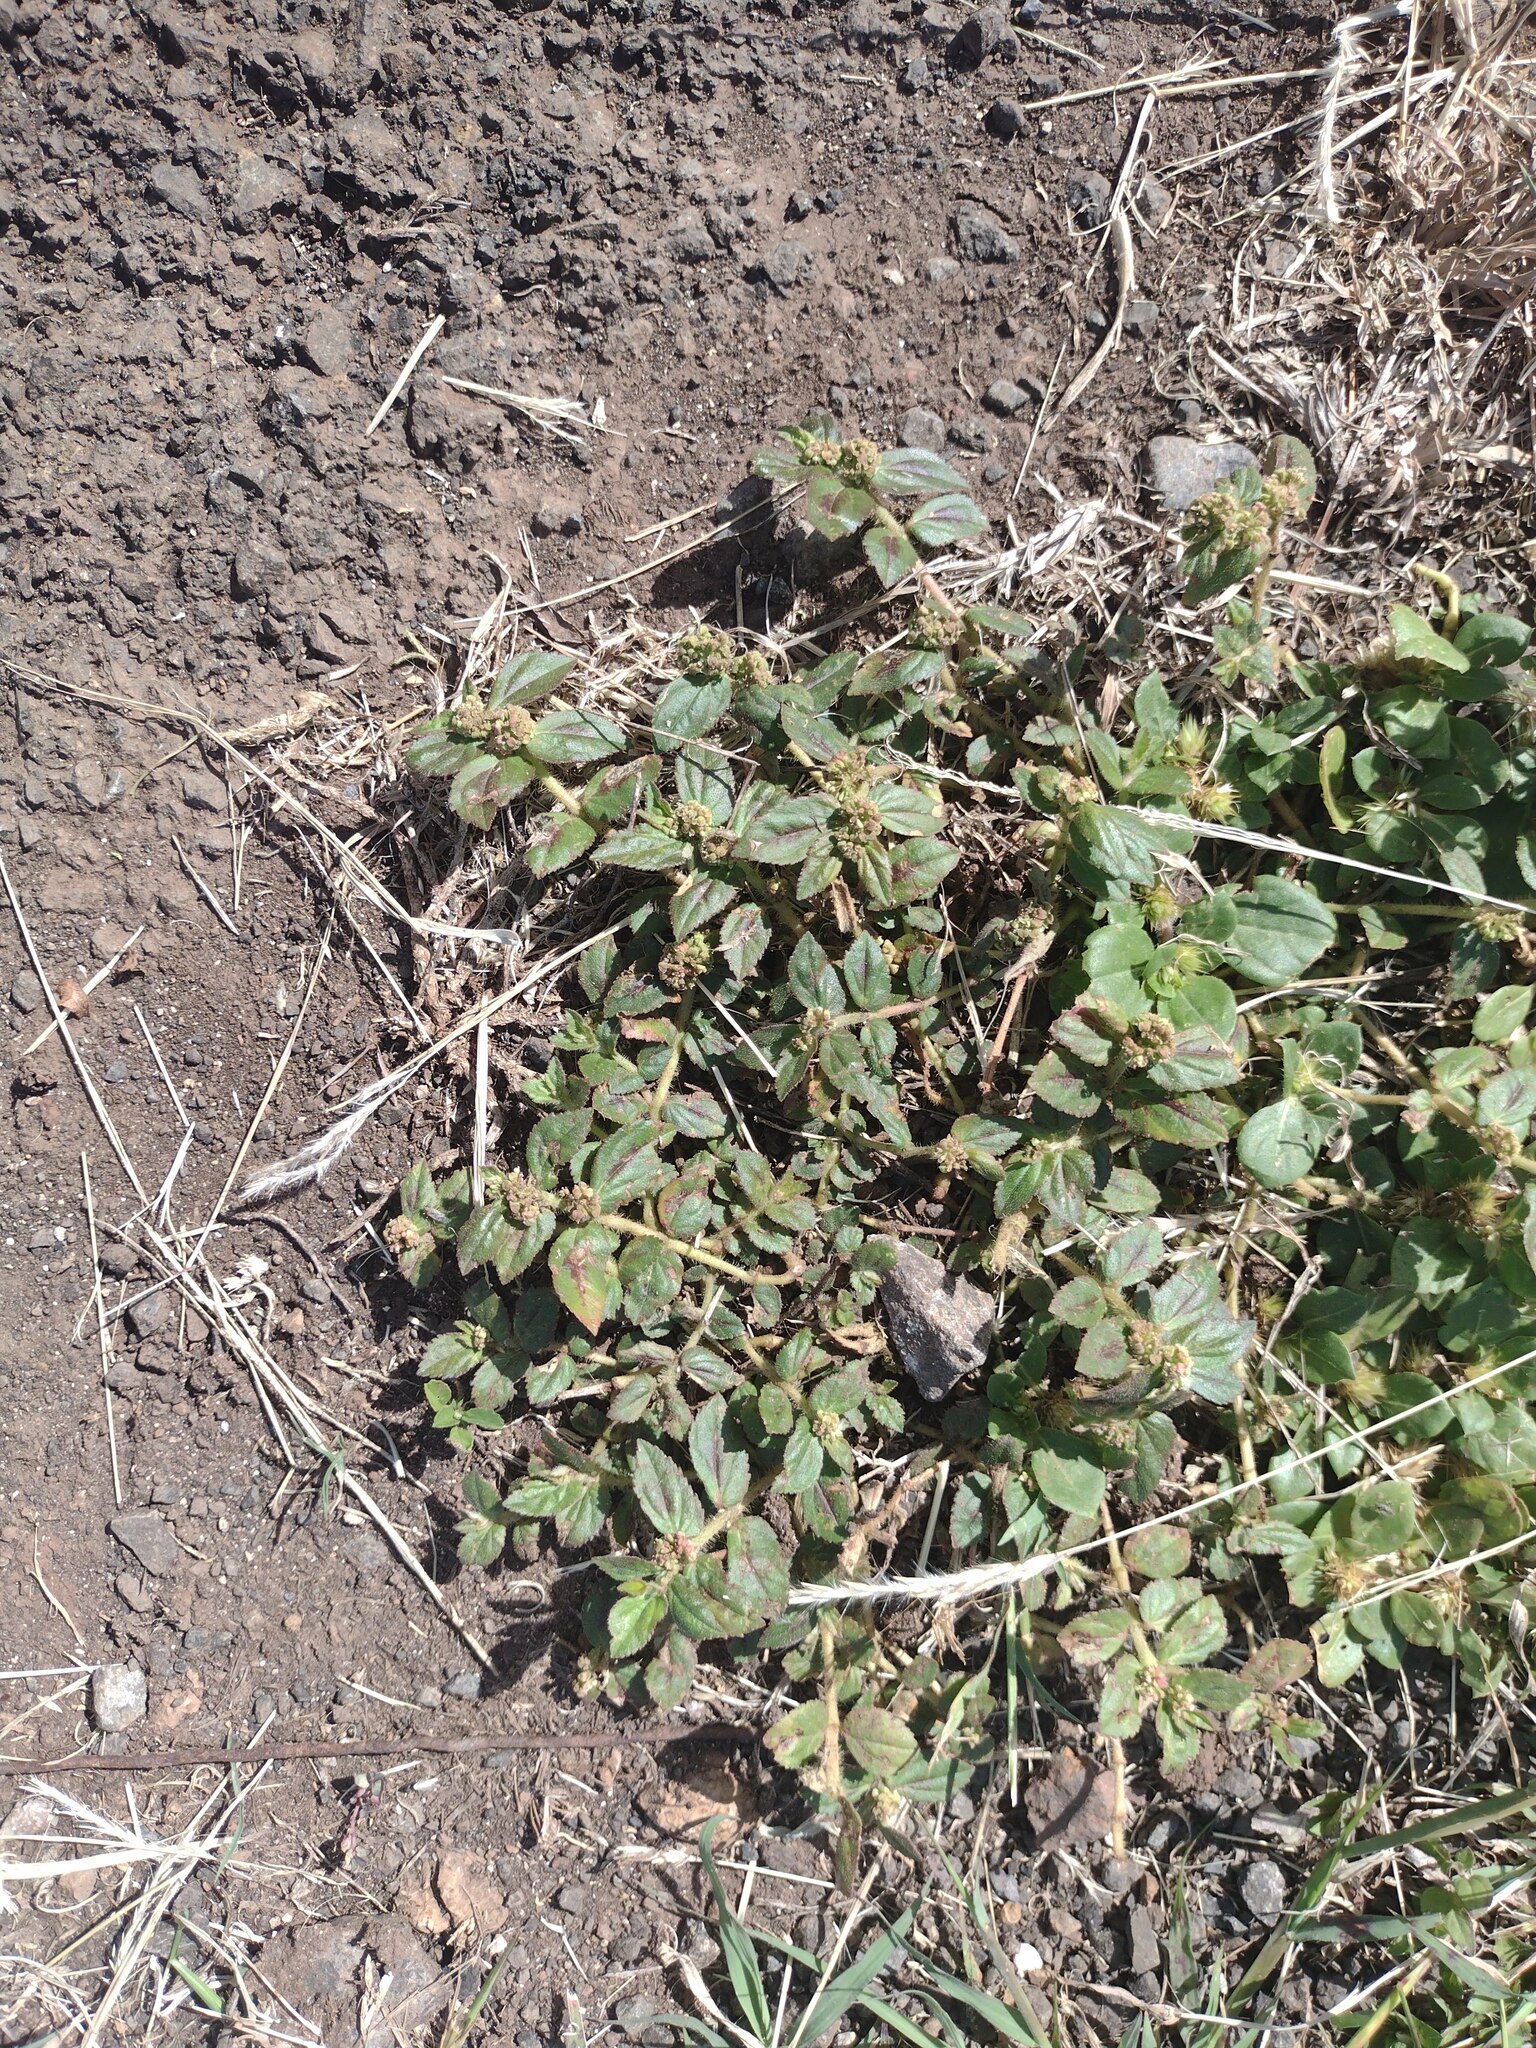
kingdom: Plantae
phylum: Tracheophyta
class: Magnoliopsida
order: Malpighiales
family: Euphorbiaceae
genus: Euphorbia
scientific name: Euphorbia hirta
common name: Pillpod sandmat
